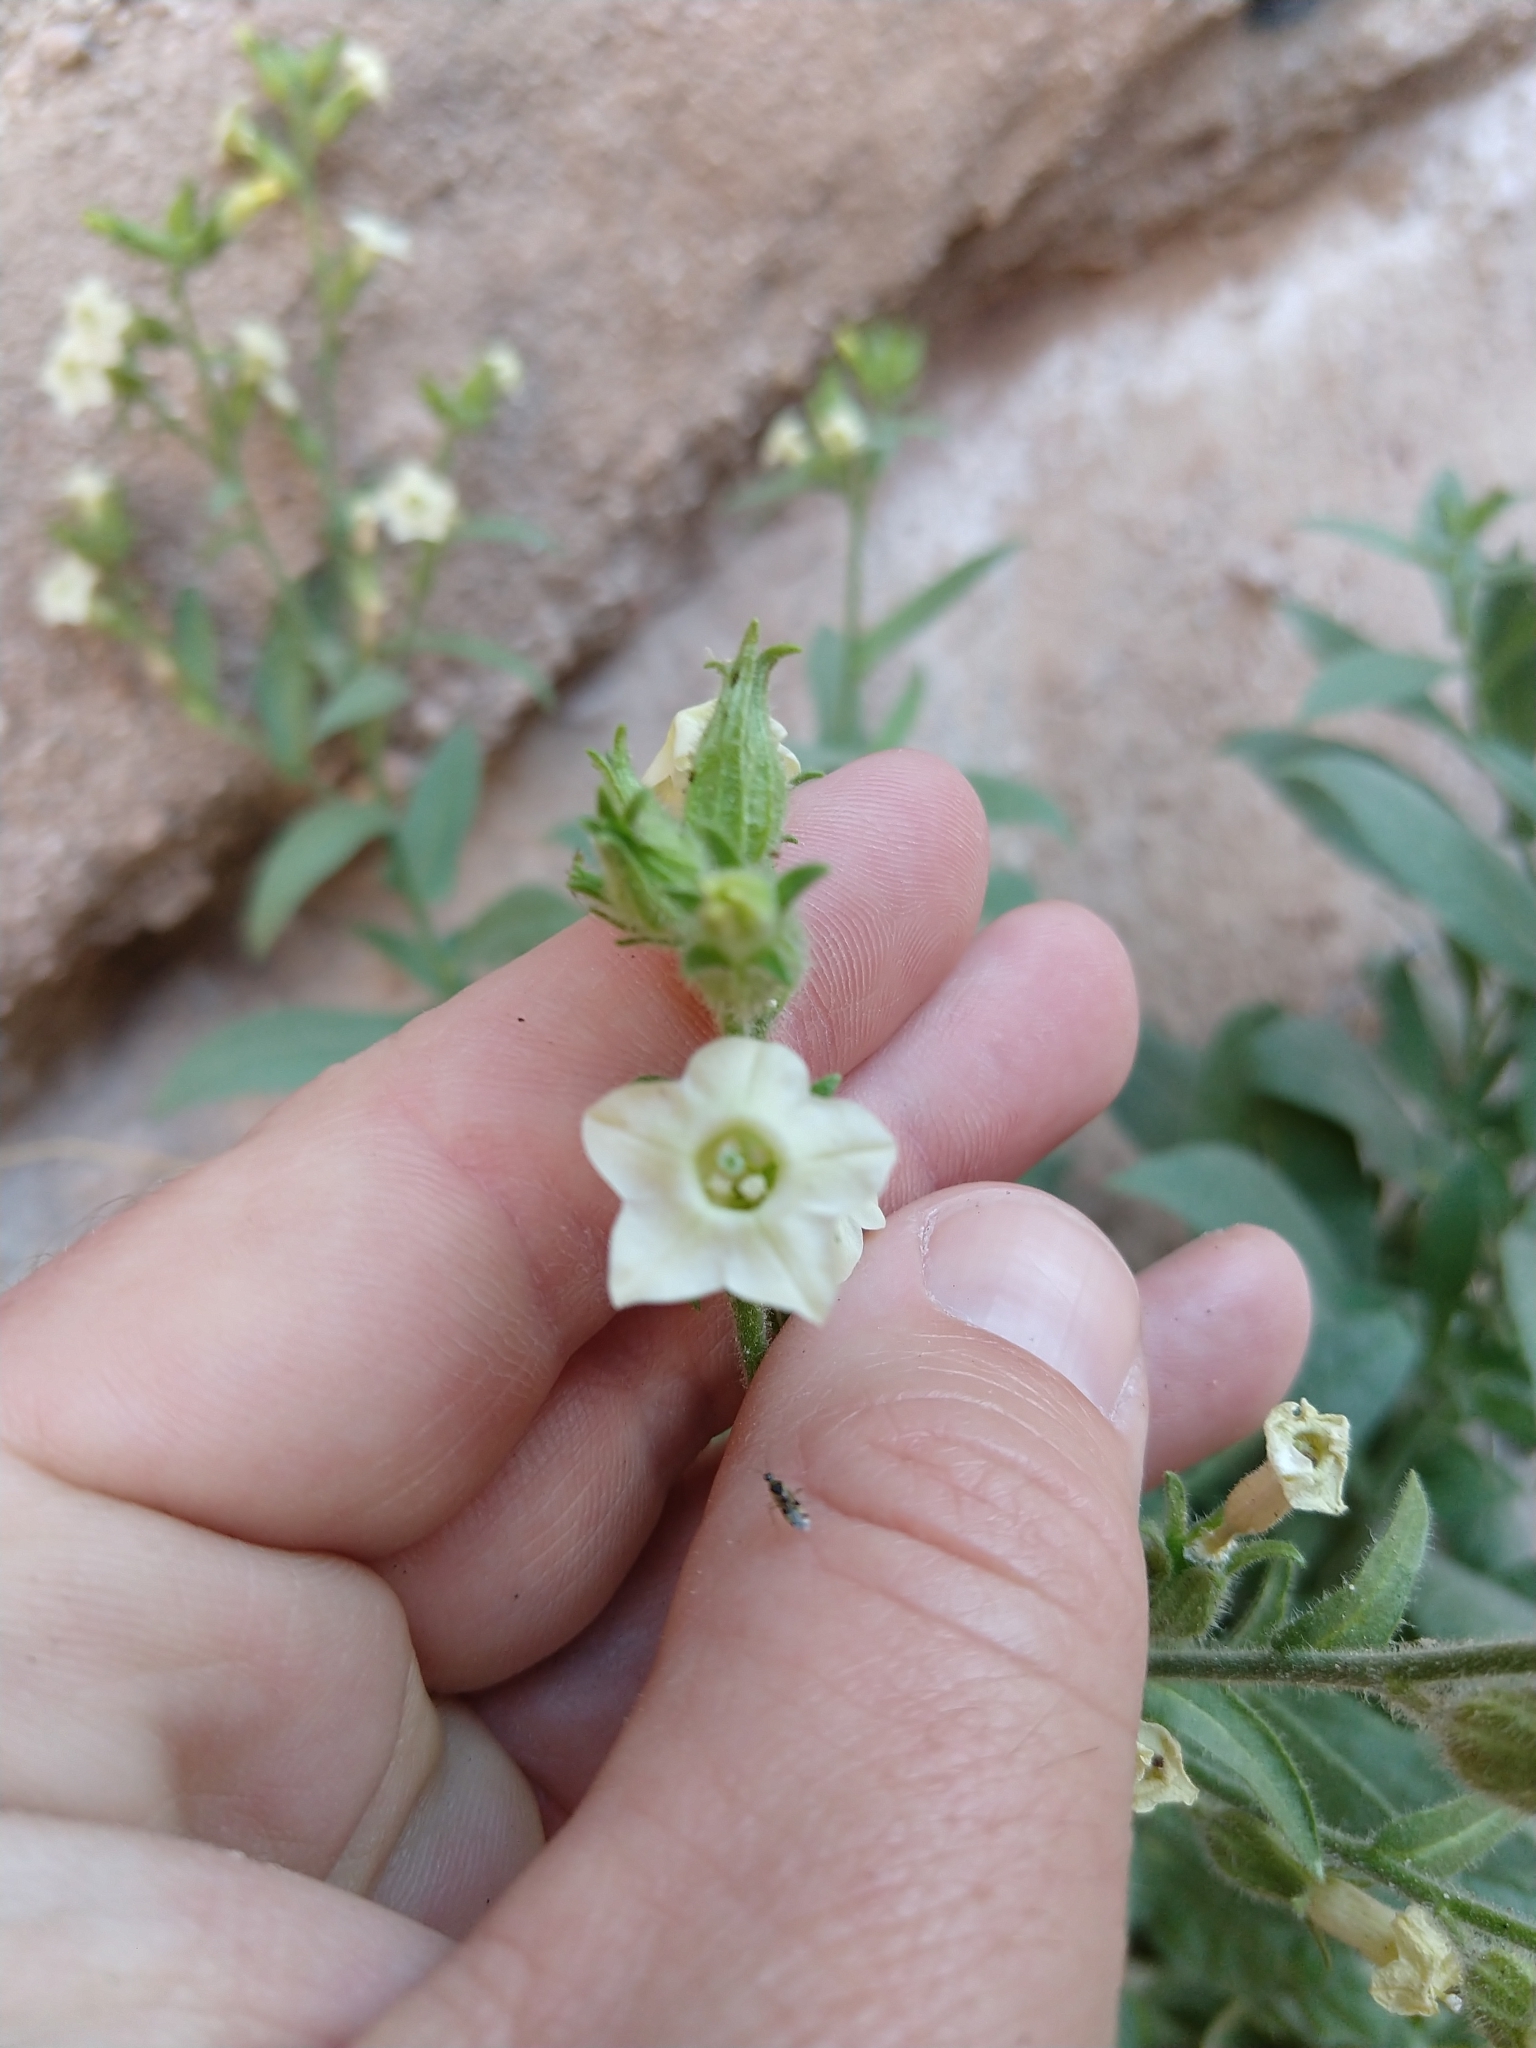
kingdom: Plantae
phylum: Tracheophyta
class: Magnoliopsida
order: Solanales
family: Solanaceae
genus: Nicotiana
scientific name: Nicotiana obtusifolia
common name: Desert tobacco
